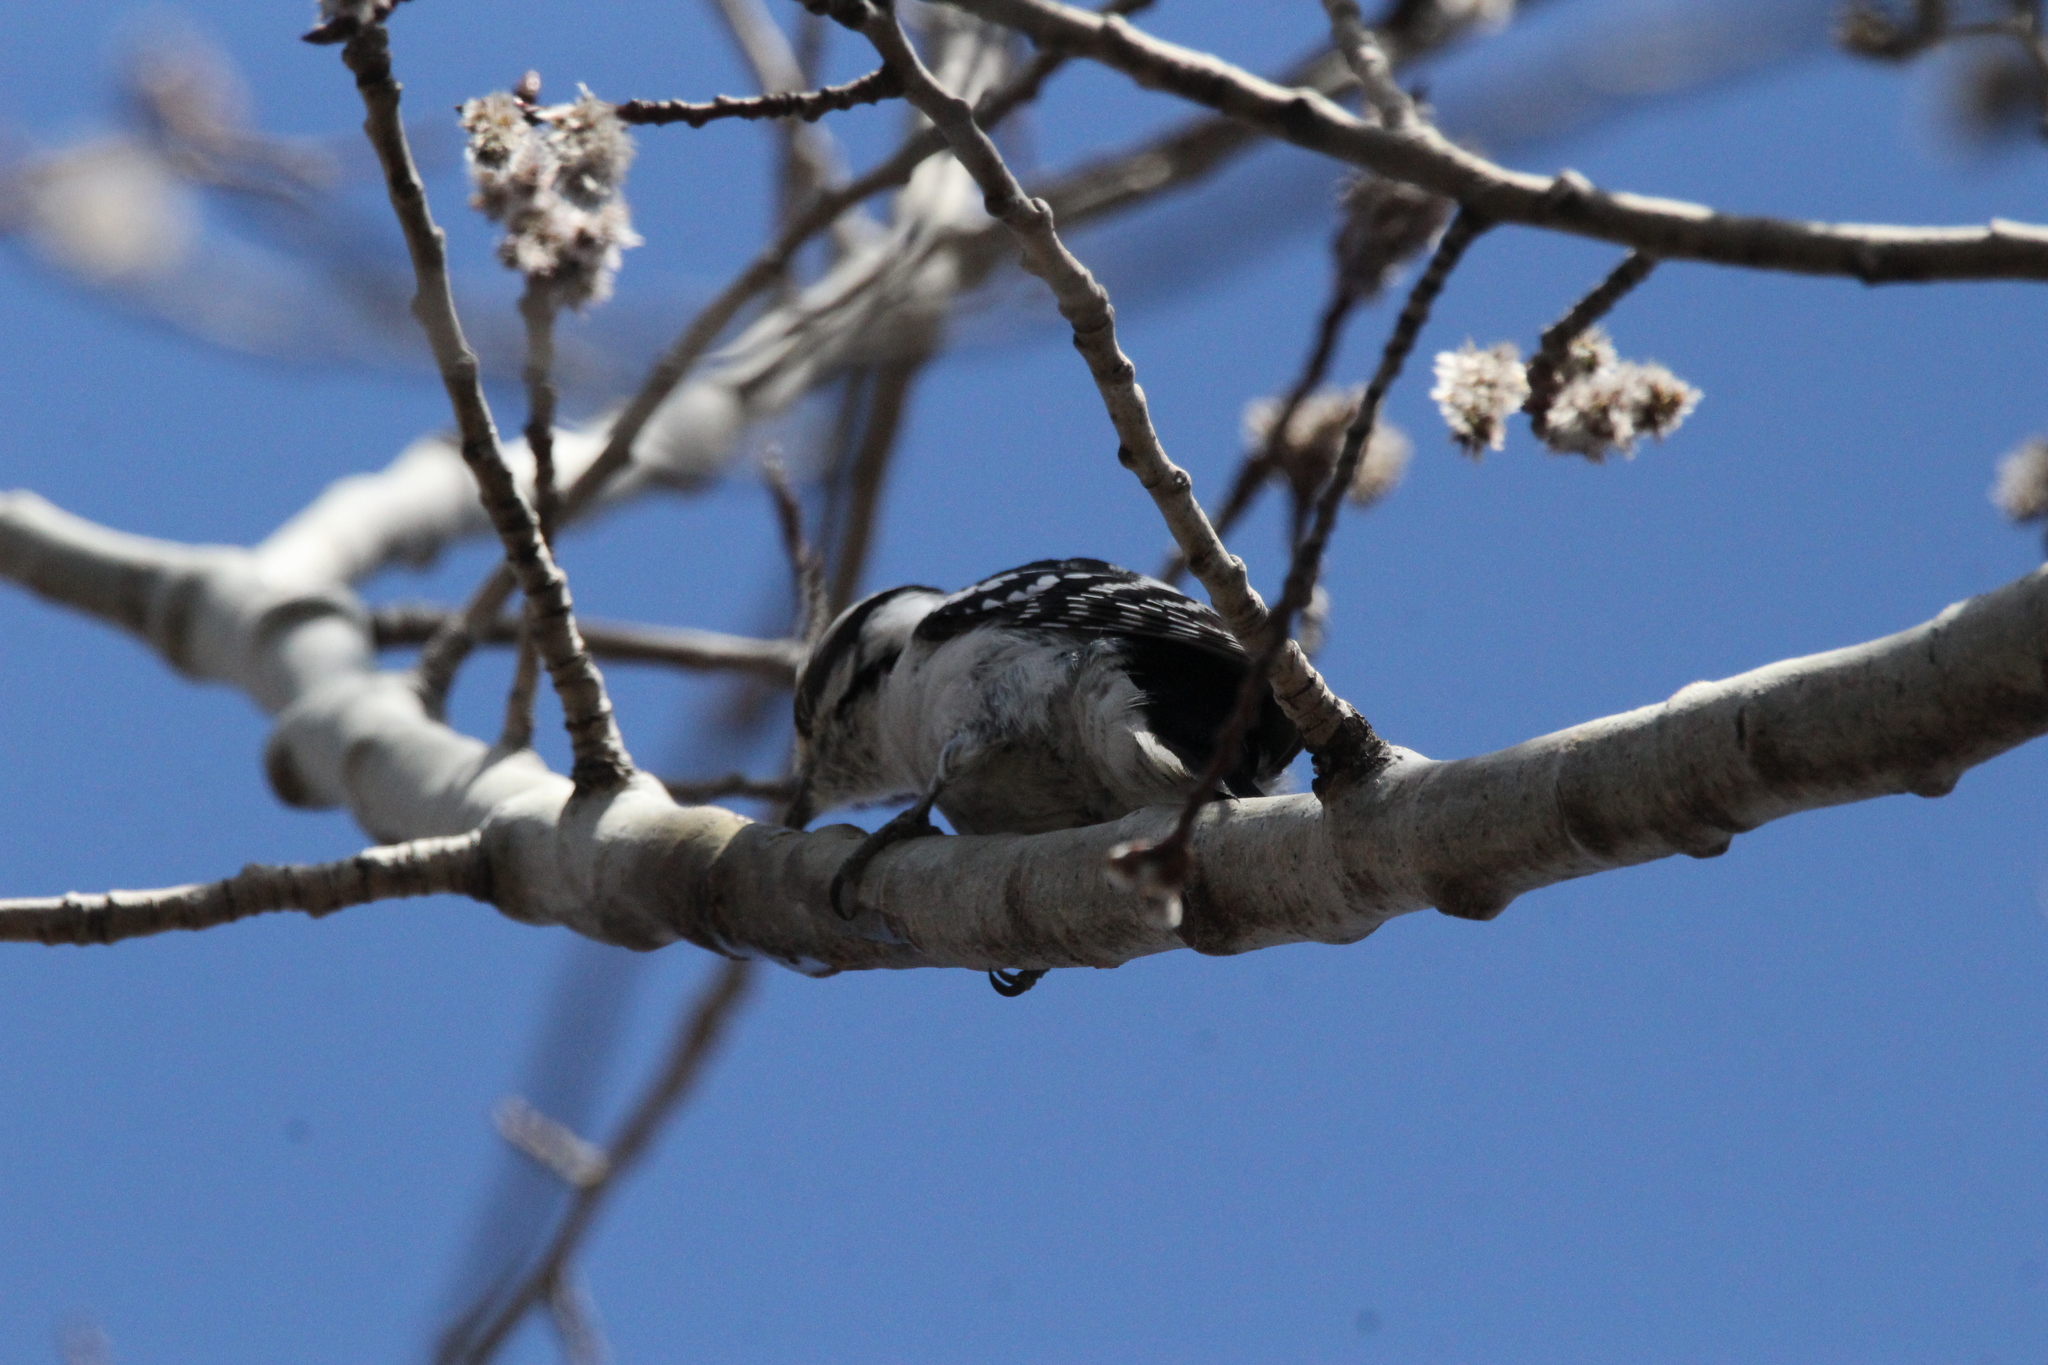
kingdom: Animalia
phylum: Chordata
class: Aves
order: Piciformes
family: Picidae
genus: Dryobates
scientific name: Dryobates pubescens
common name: Downy woodpecker
